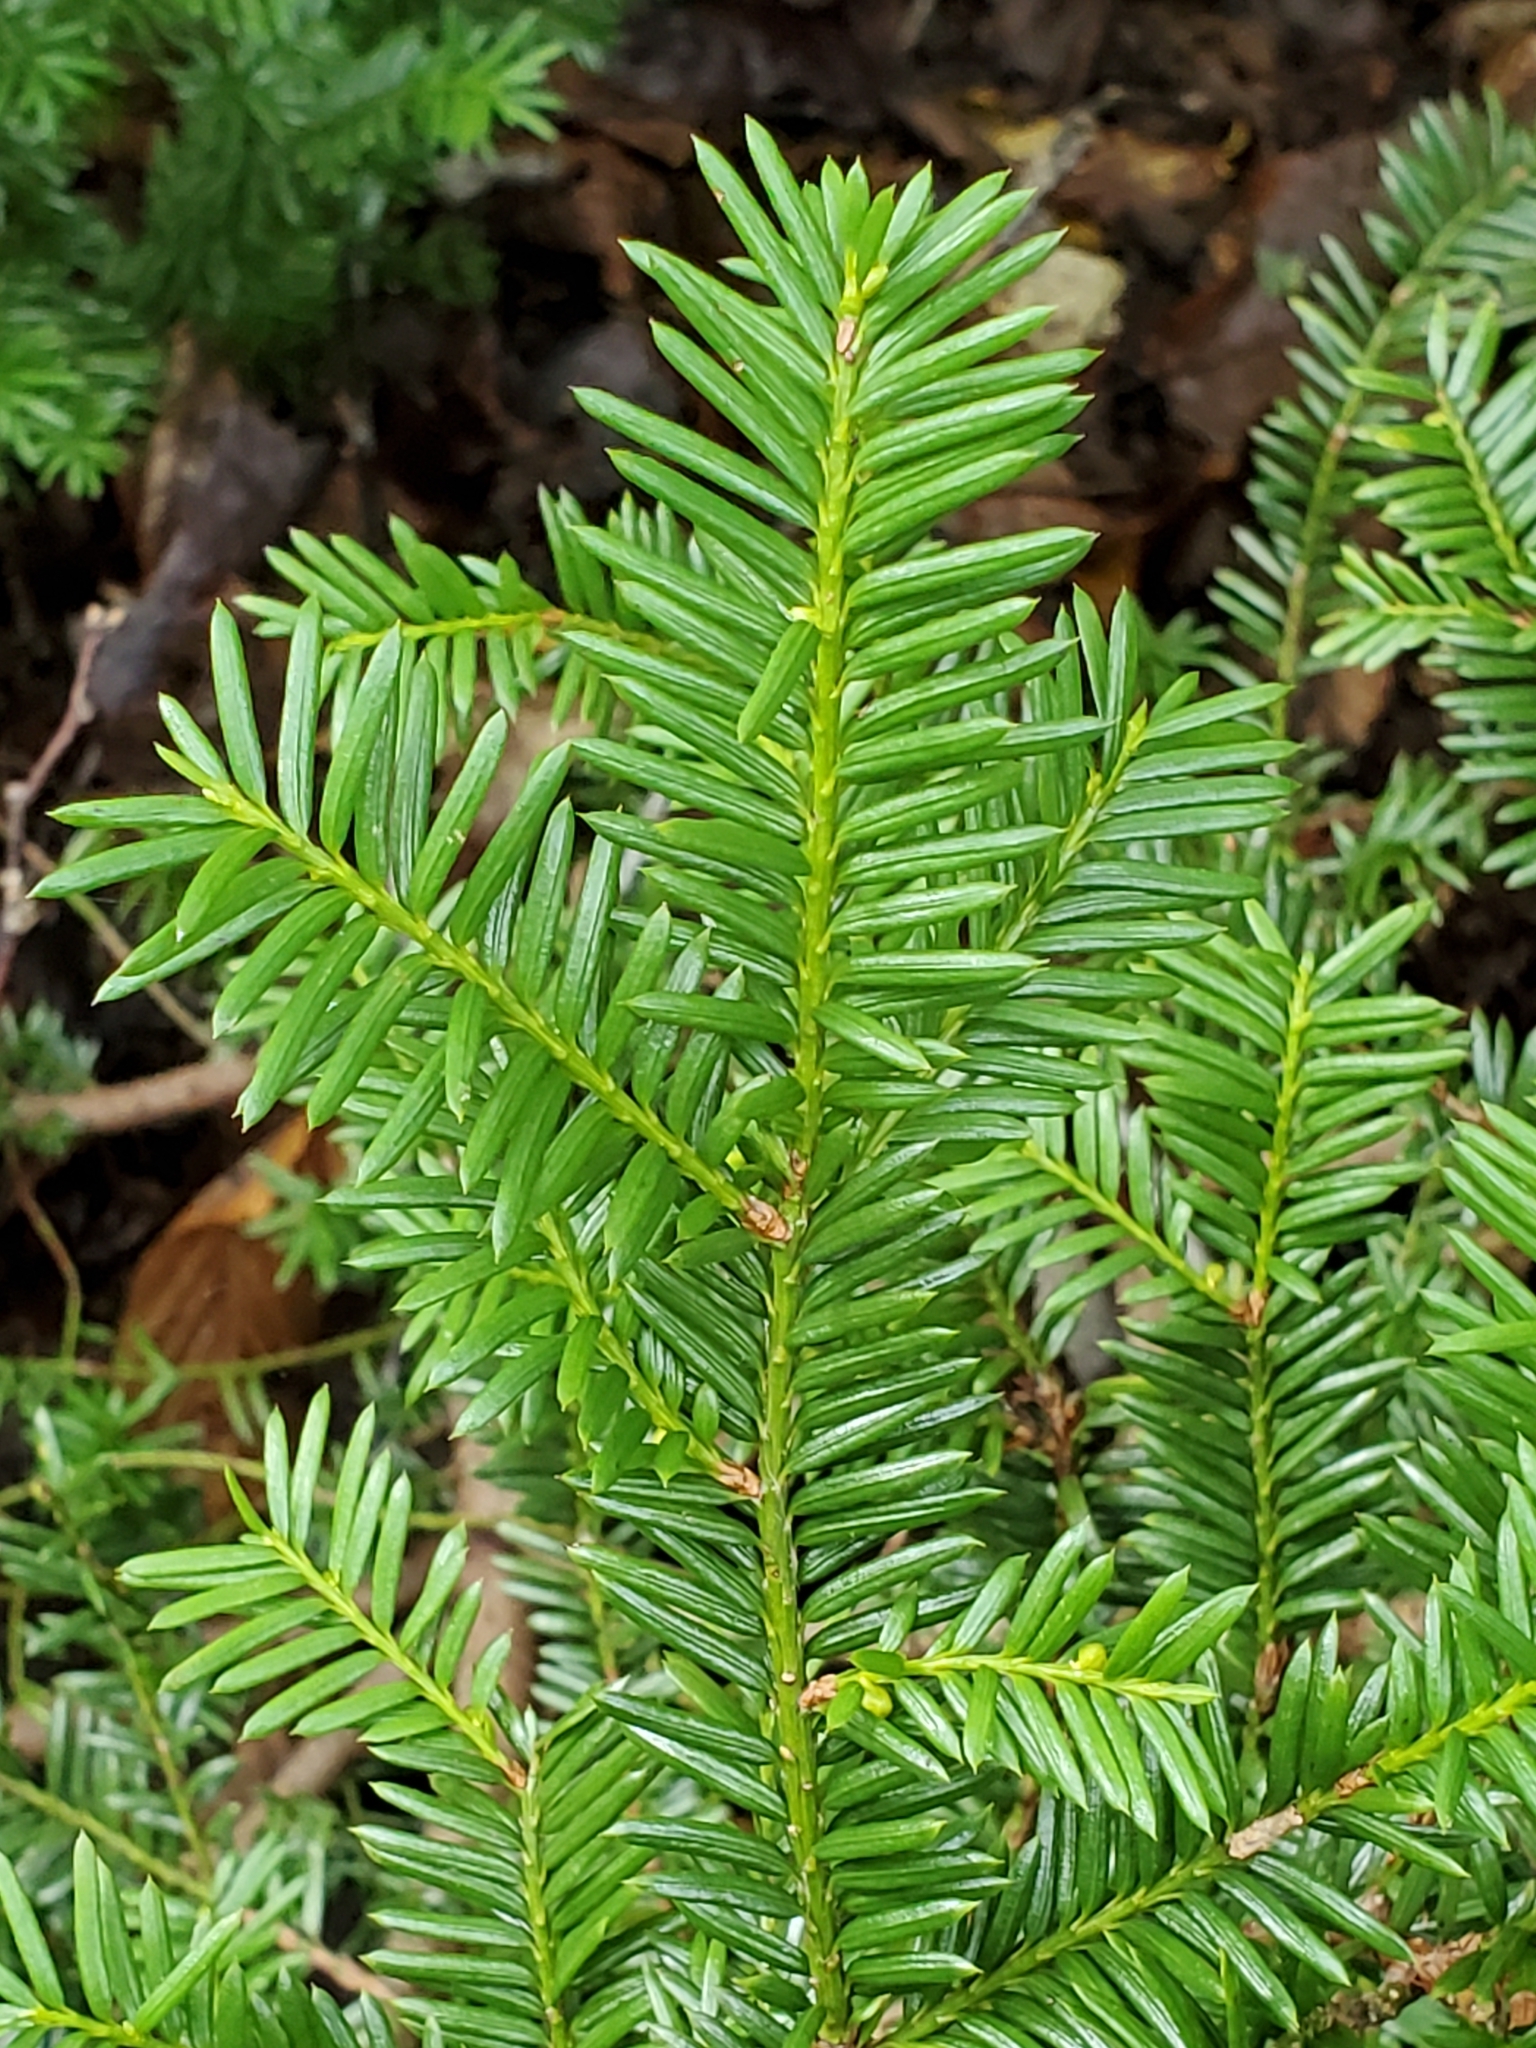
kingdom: Plantae
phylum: Tracheophyta
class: Pinopsida
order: Pinales
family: Taxaceae
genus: Taxus
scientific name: Taxus canadensis
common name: American yew
